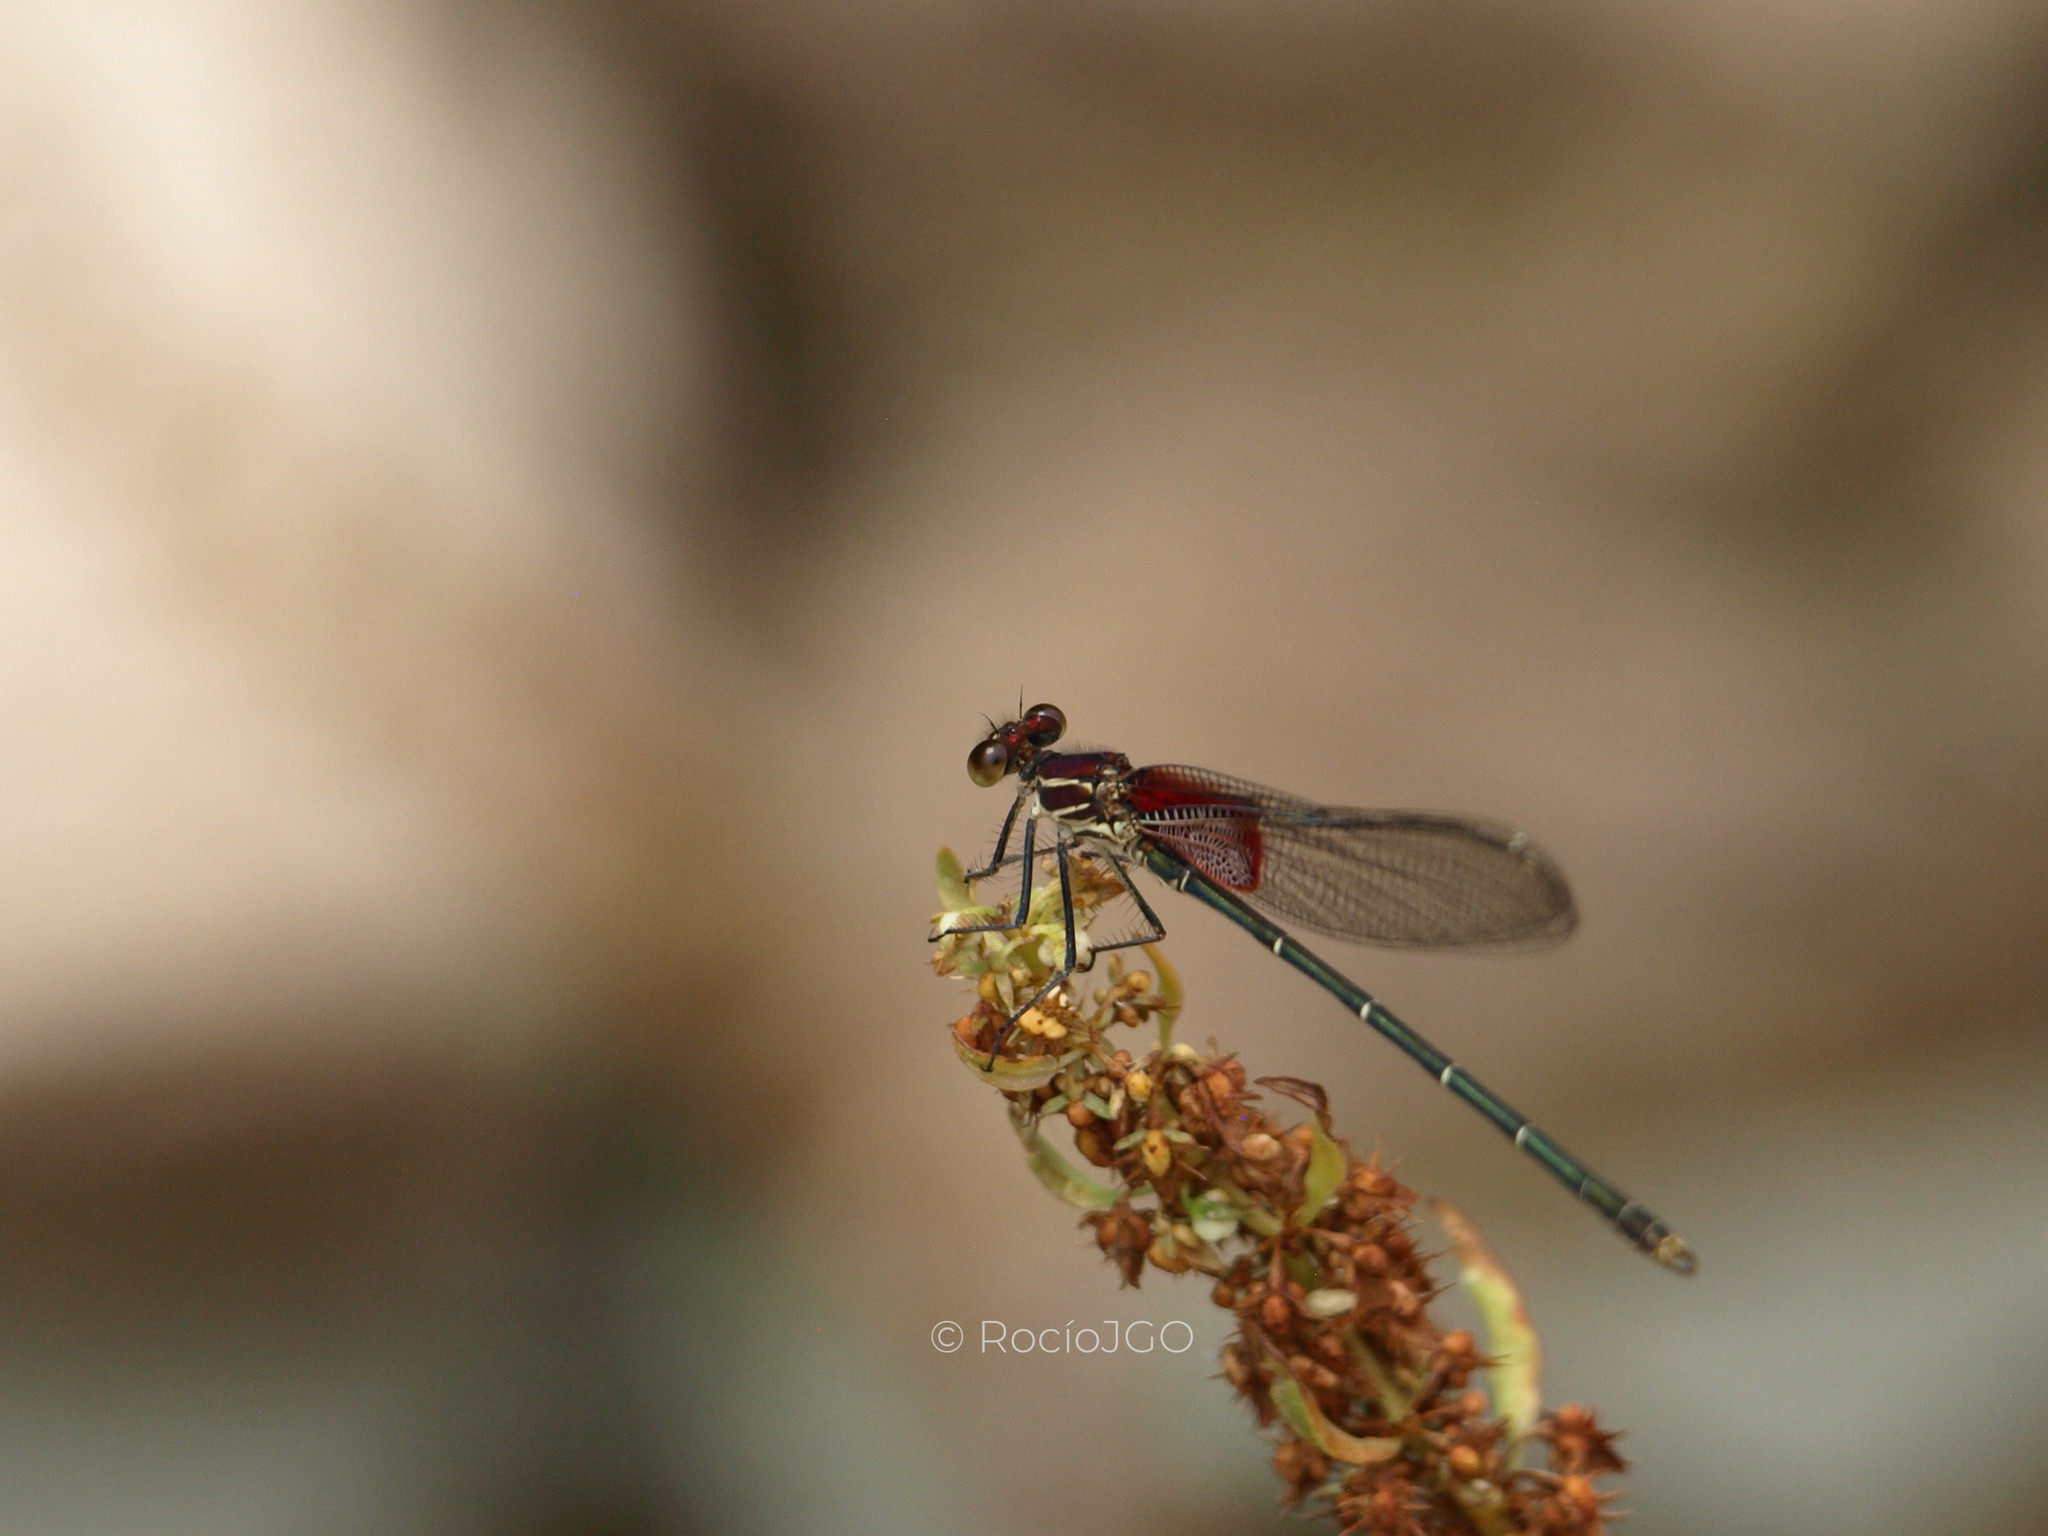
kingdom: Animalia
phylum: Arthropoda
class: Insecta
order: Odonata
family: Calopterygidae
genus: Hetaerina
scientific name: Hetaerina americana
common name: American rubyspot
